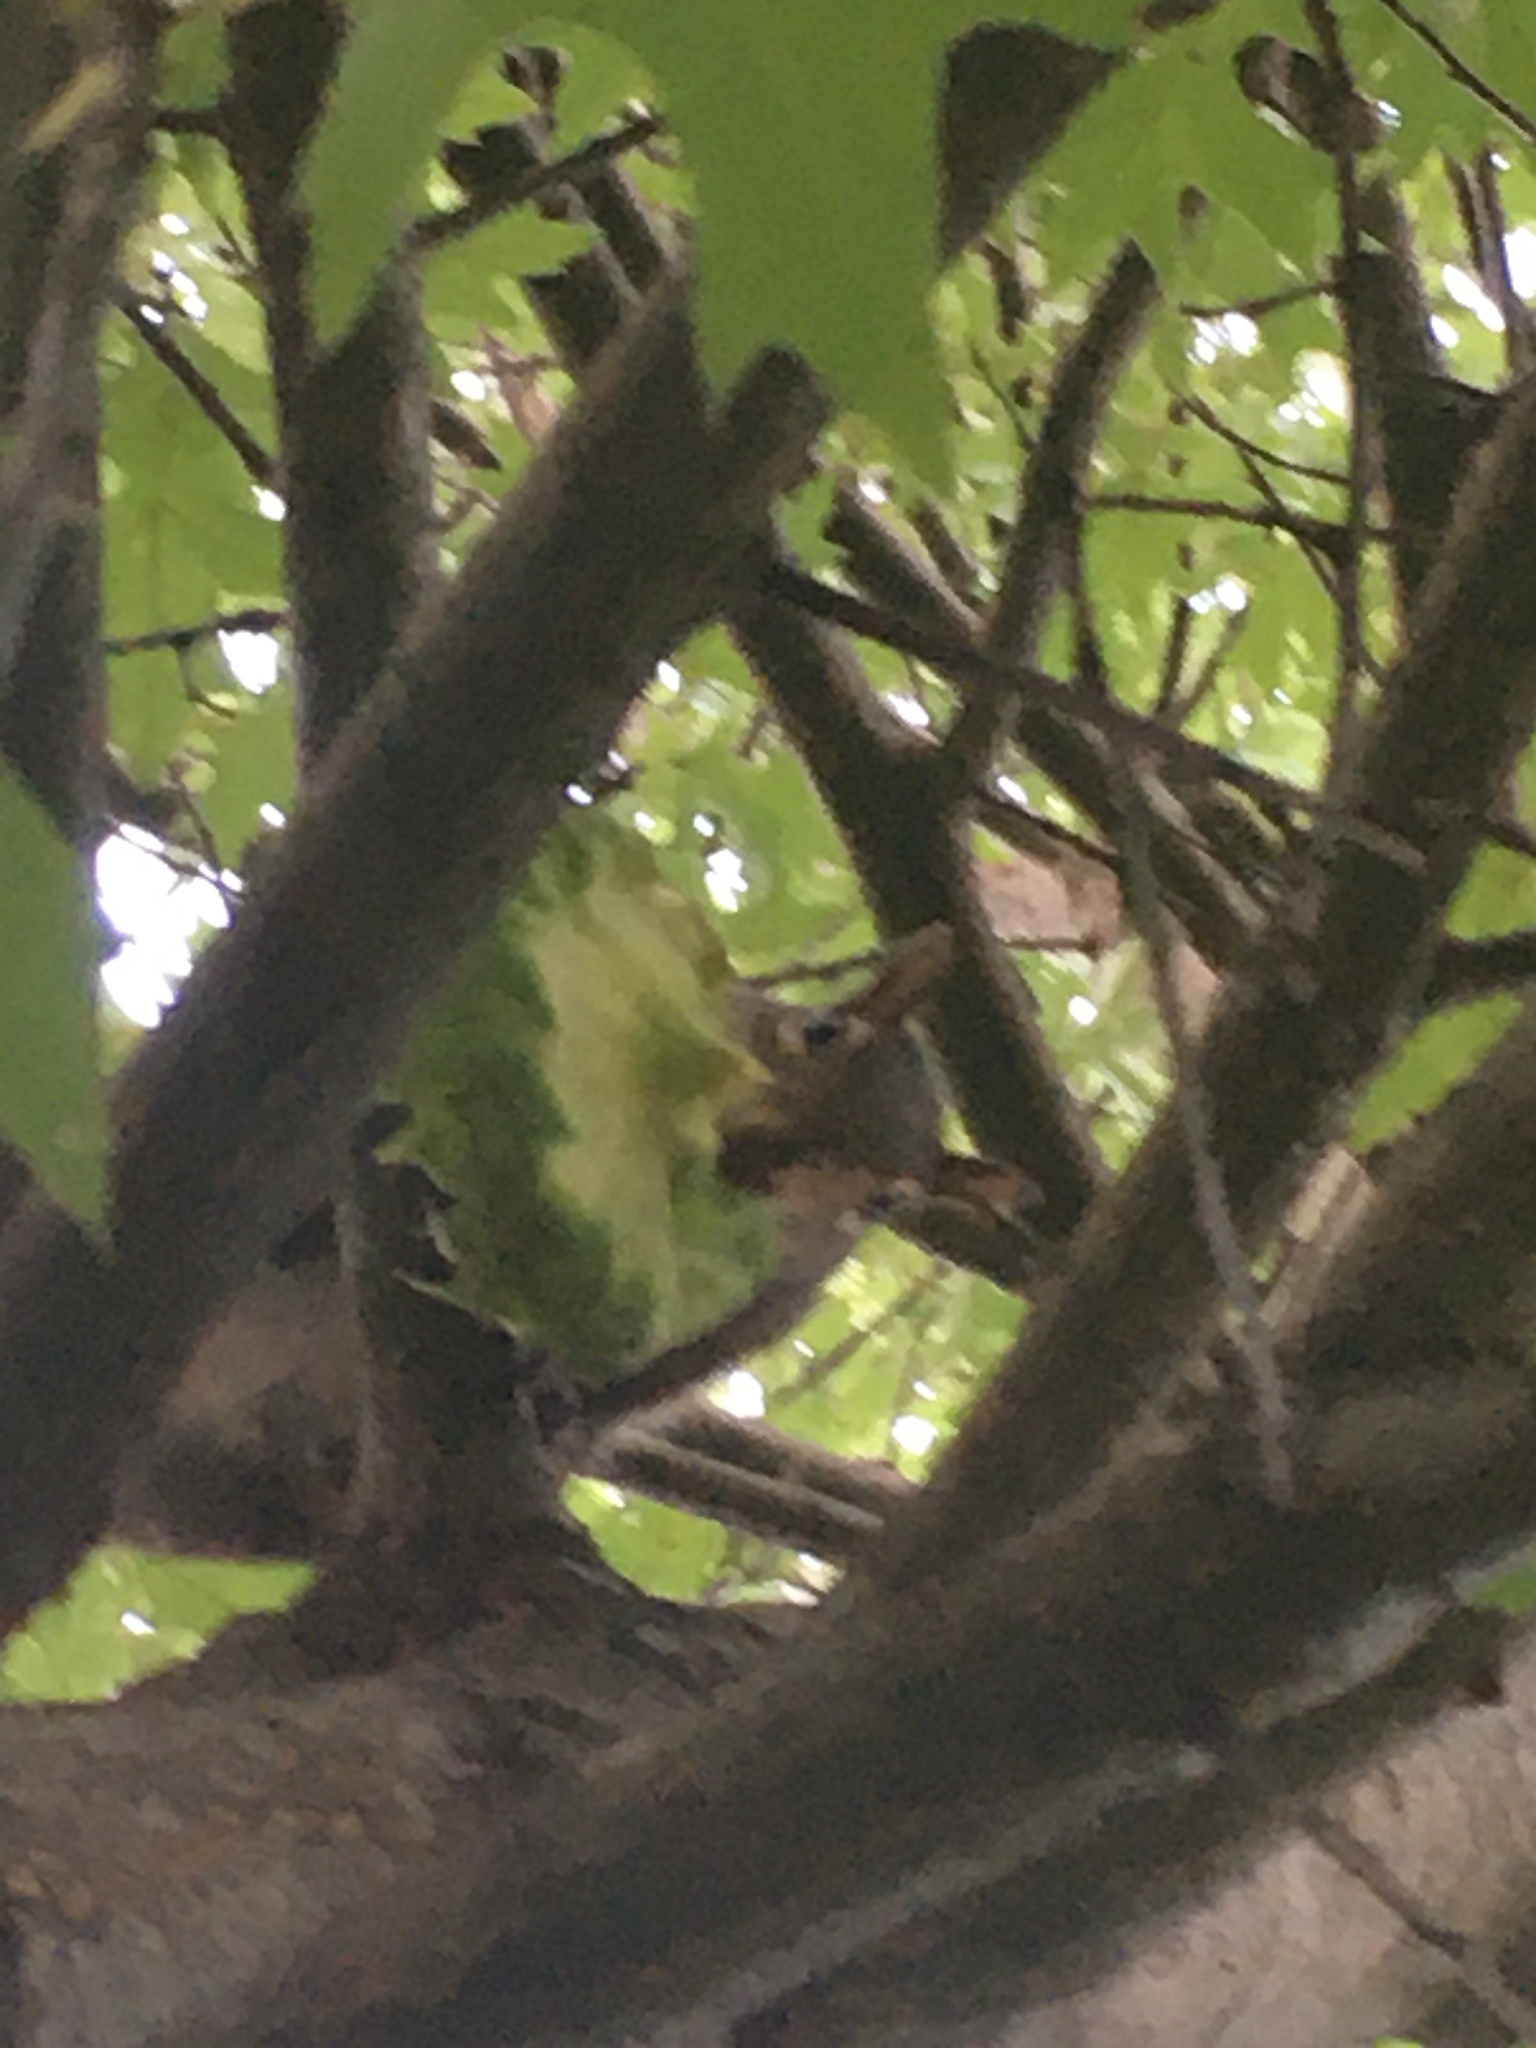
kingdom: Animalia
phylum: Chordata
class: Mammalia
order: Rodentia
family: Sciuridae
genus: Sciurus
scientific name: Sciurus carolinensis
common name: Eastern gray squirrel
